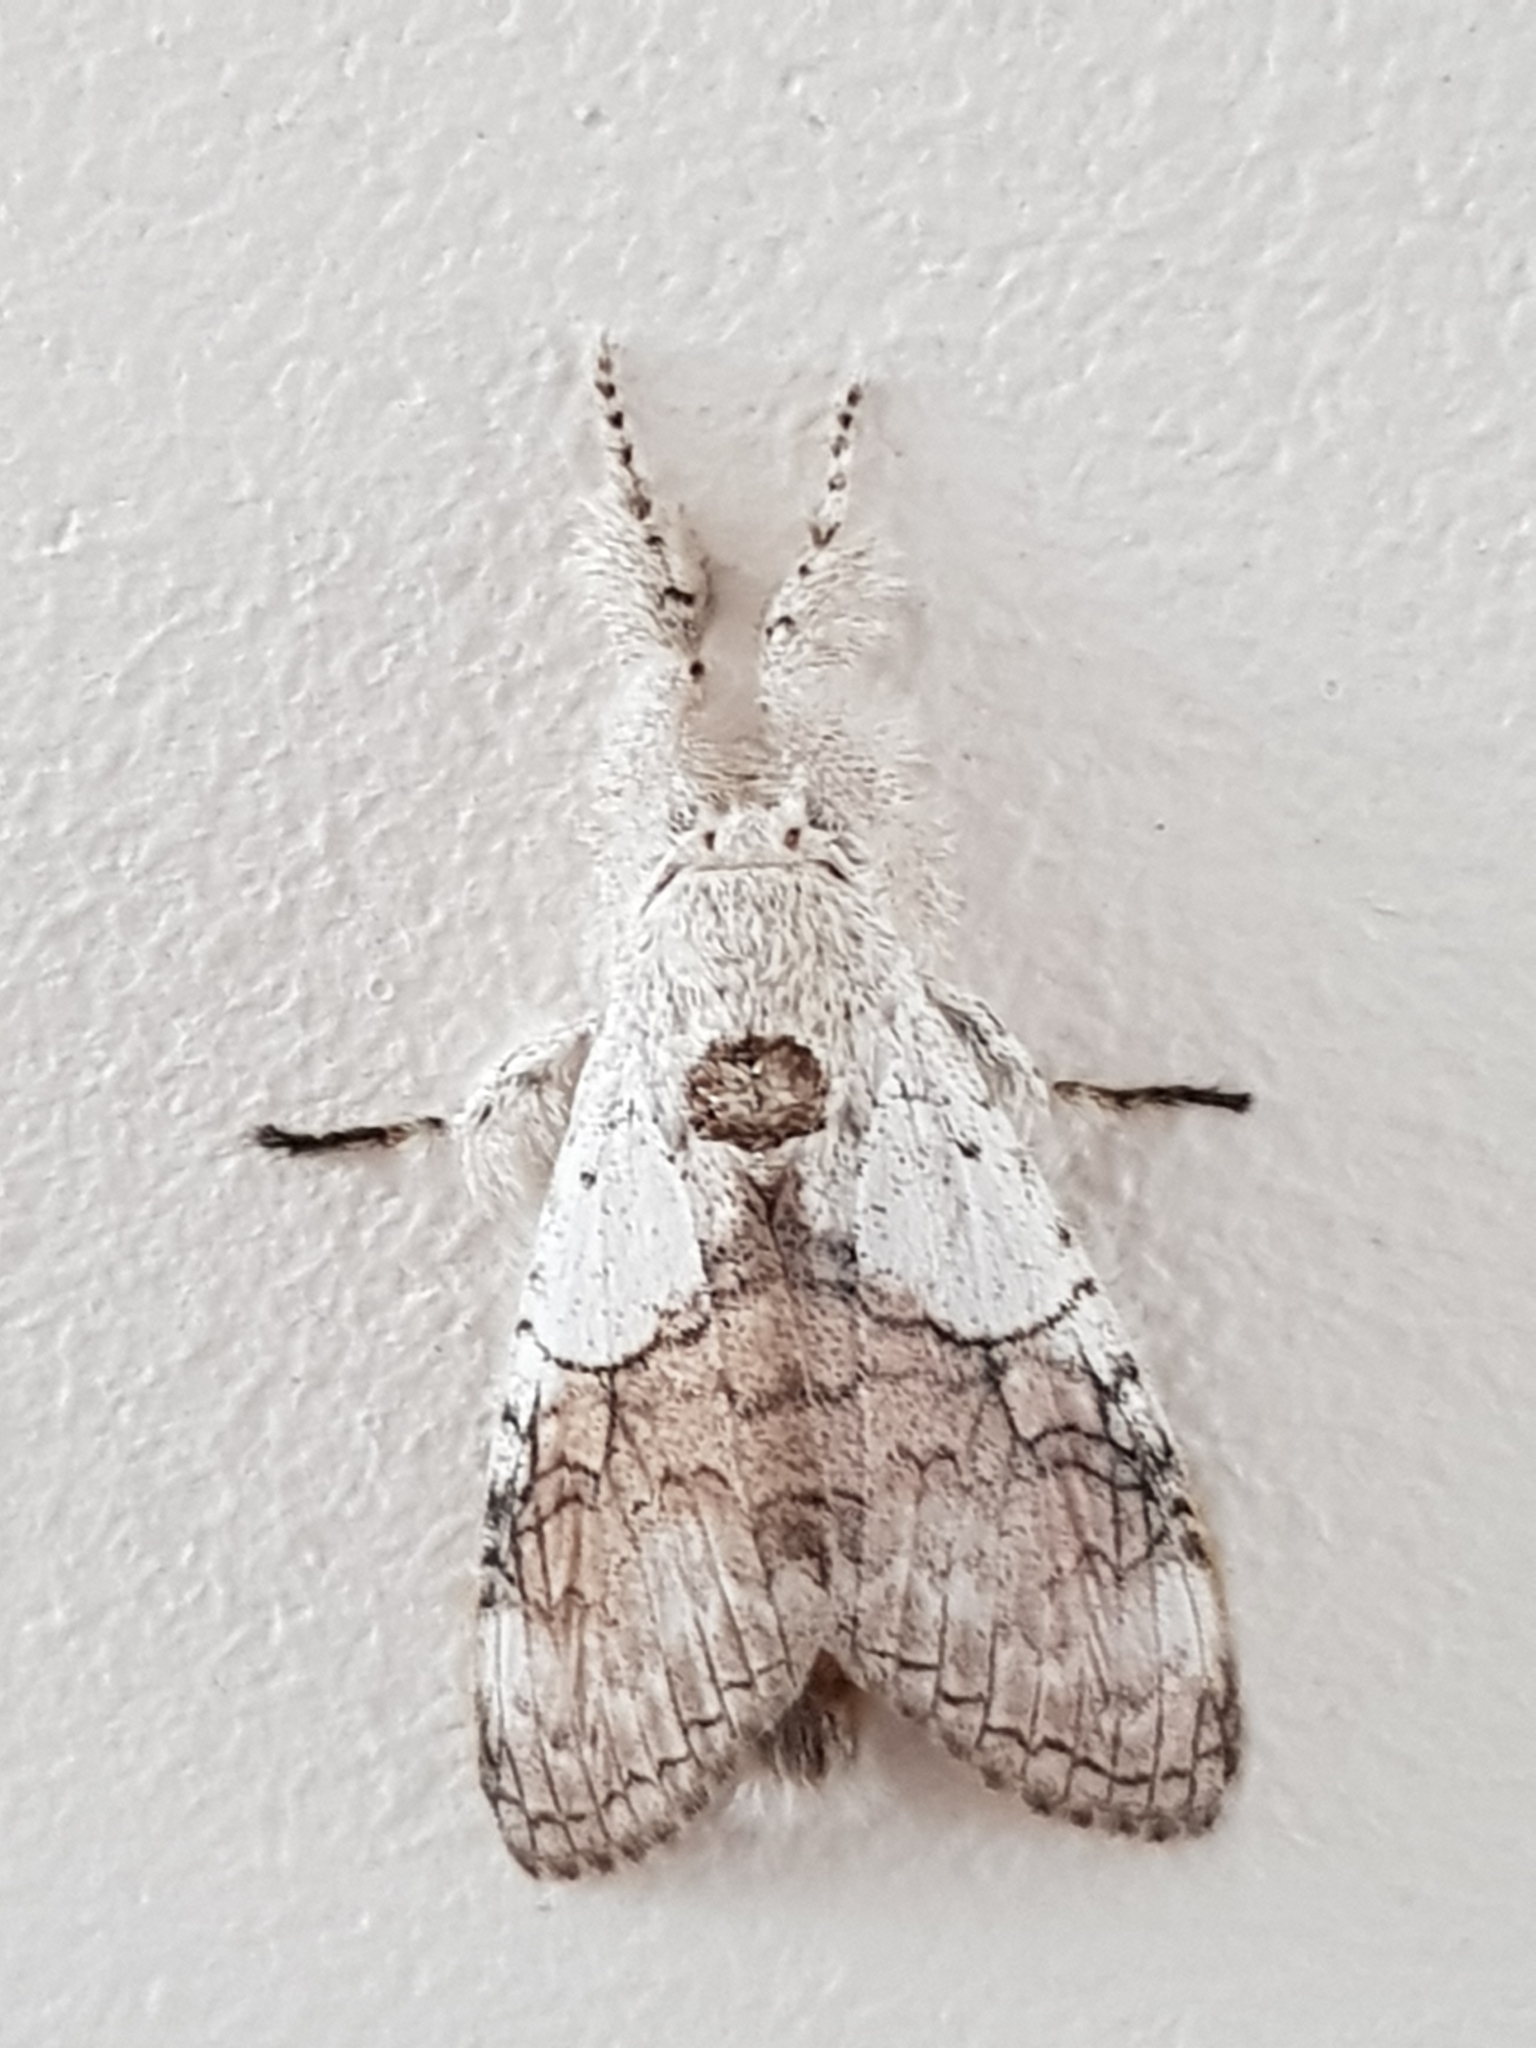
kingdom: Animalia
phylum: Arthropoda
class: Insecta
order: Lepidoptera
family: Erebidae
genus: Calliteara
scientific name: Calliteara horsfieldii
